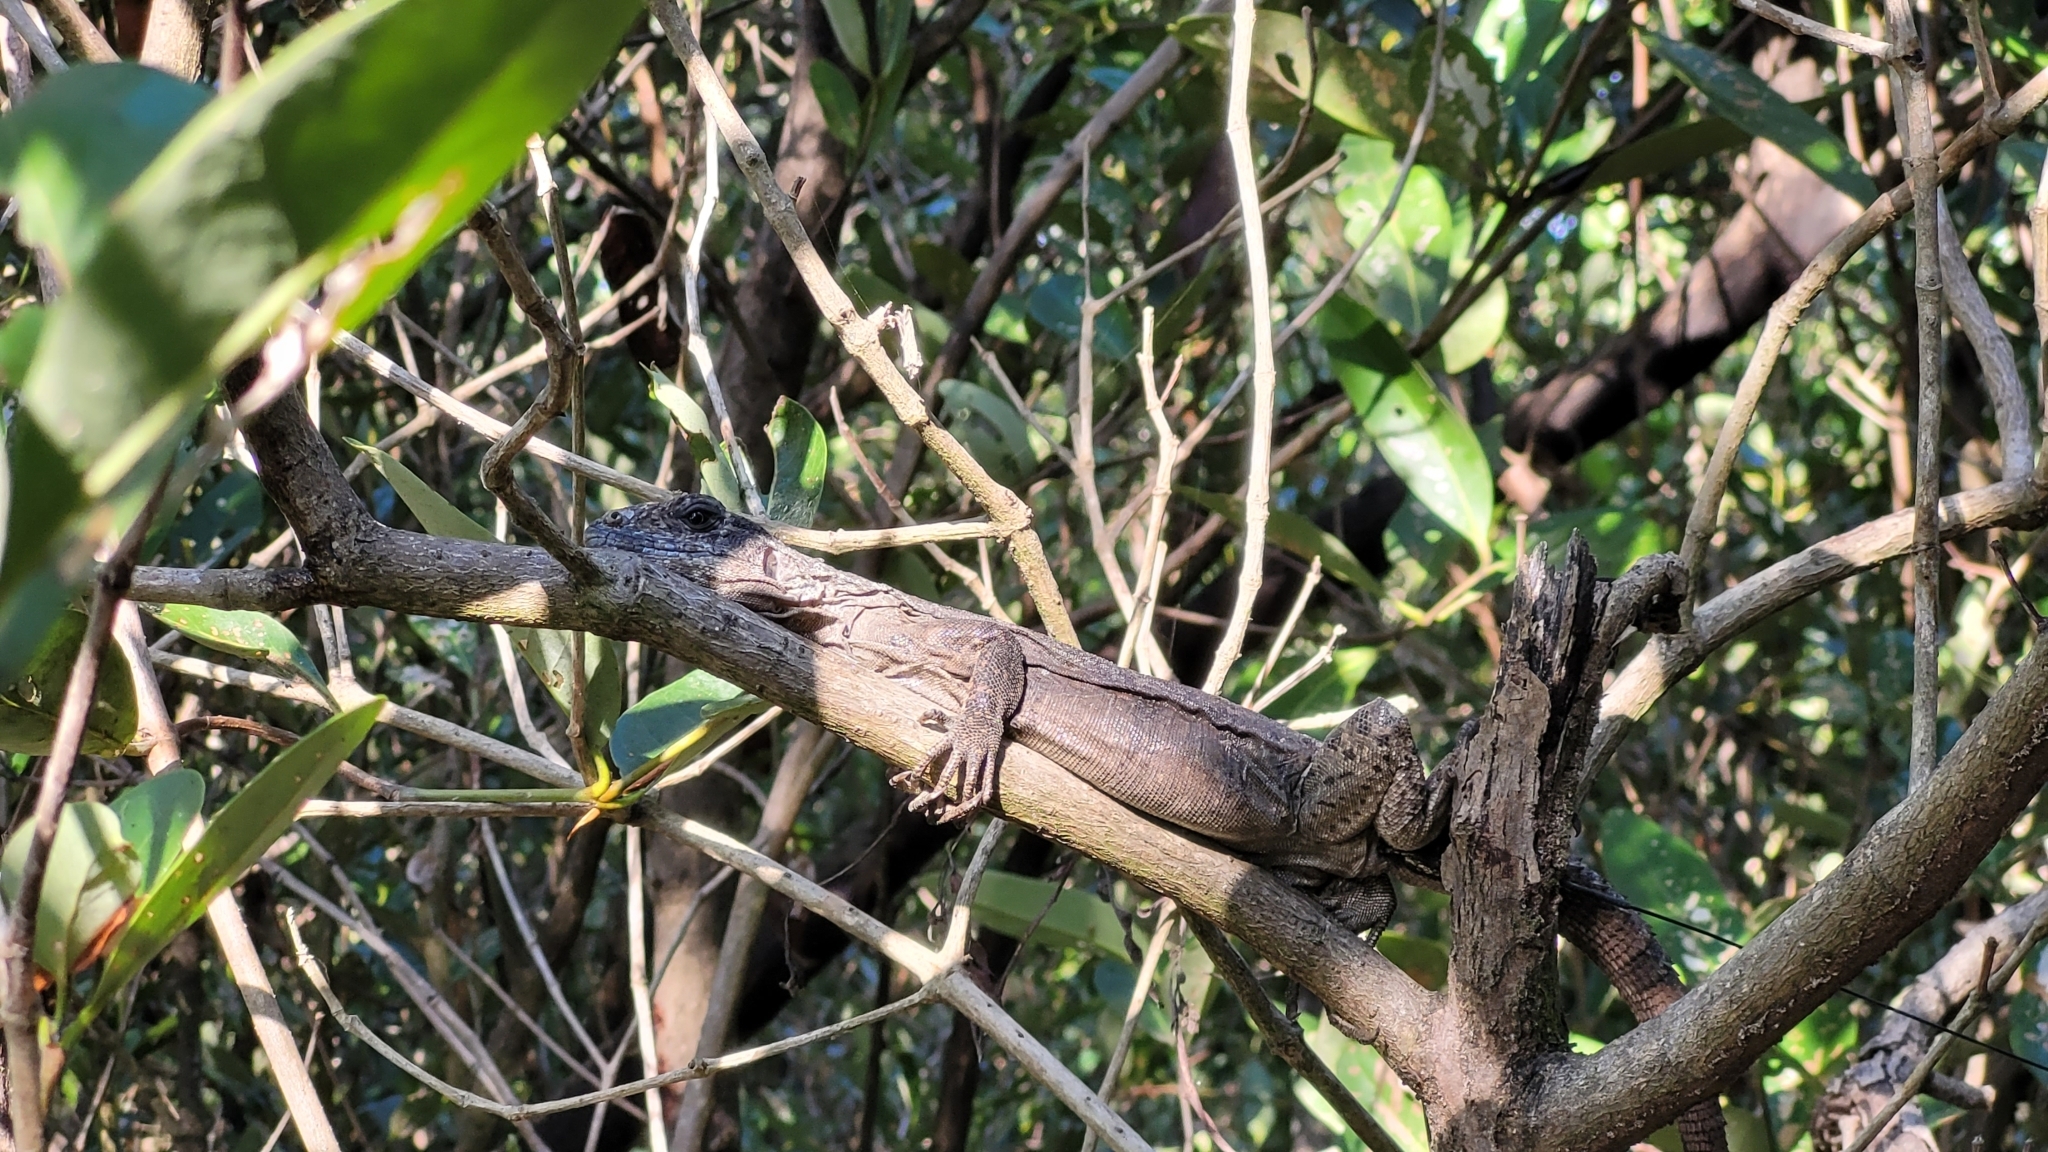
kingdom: Animalia
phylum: Chordata
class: Squamata
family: Iguanidae
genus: Ctenosaura
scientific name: Ctenosaura bakeri
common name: Utila spiny-tailed iguana
